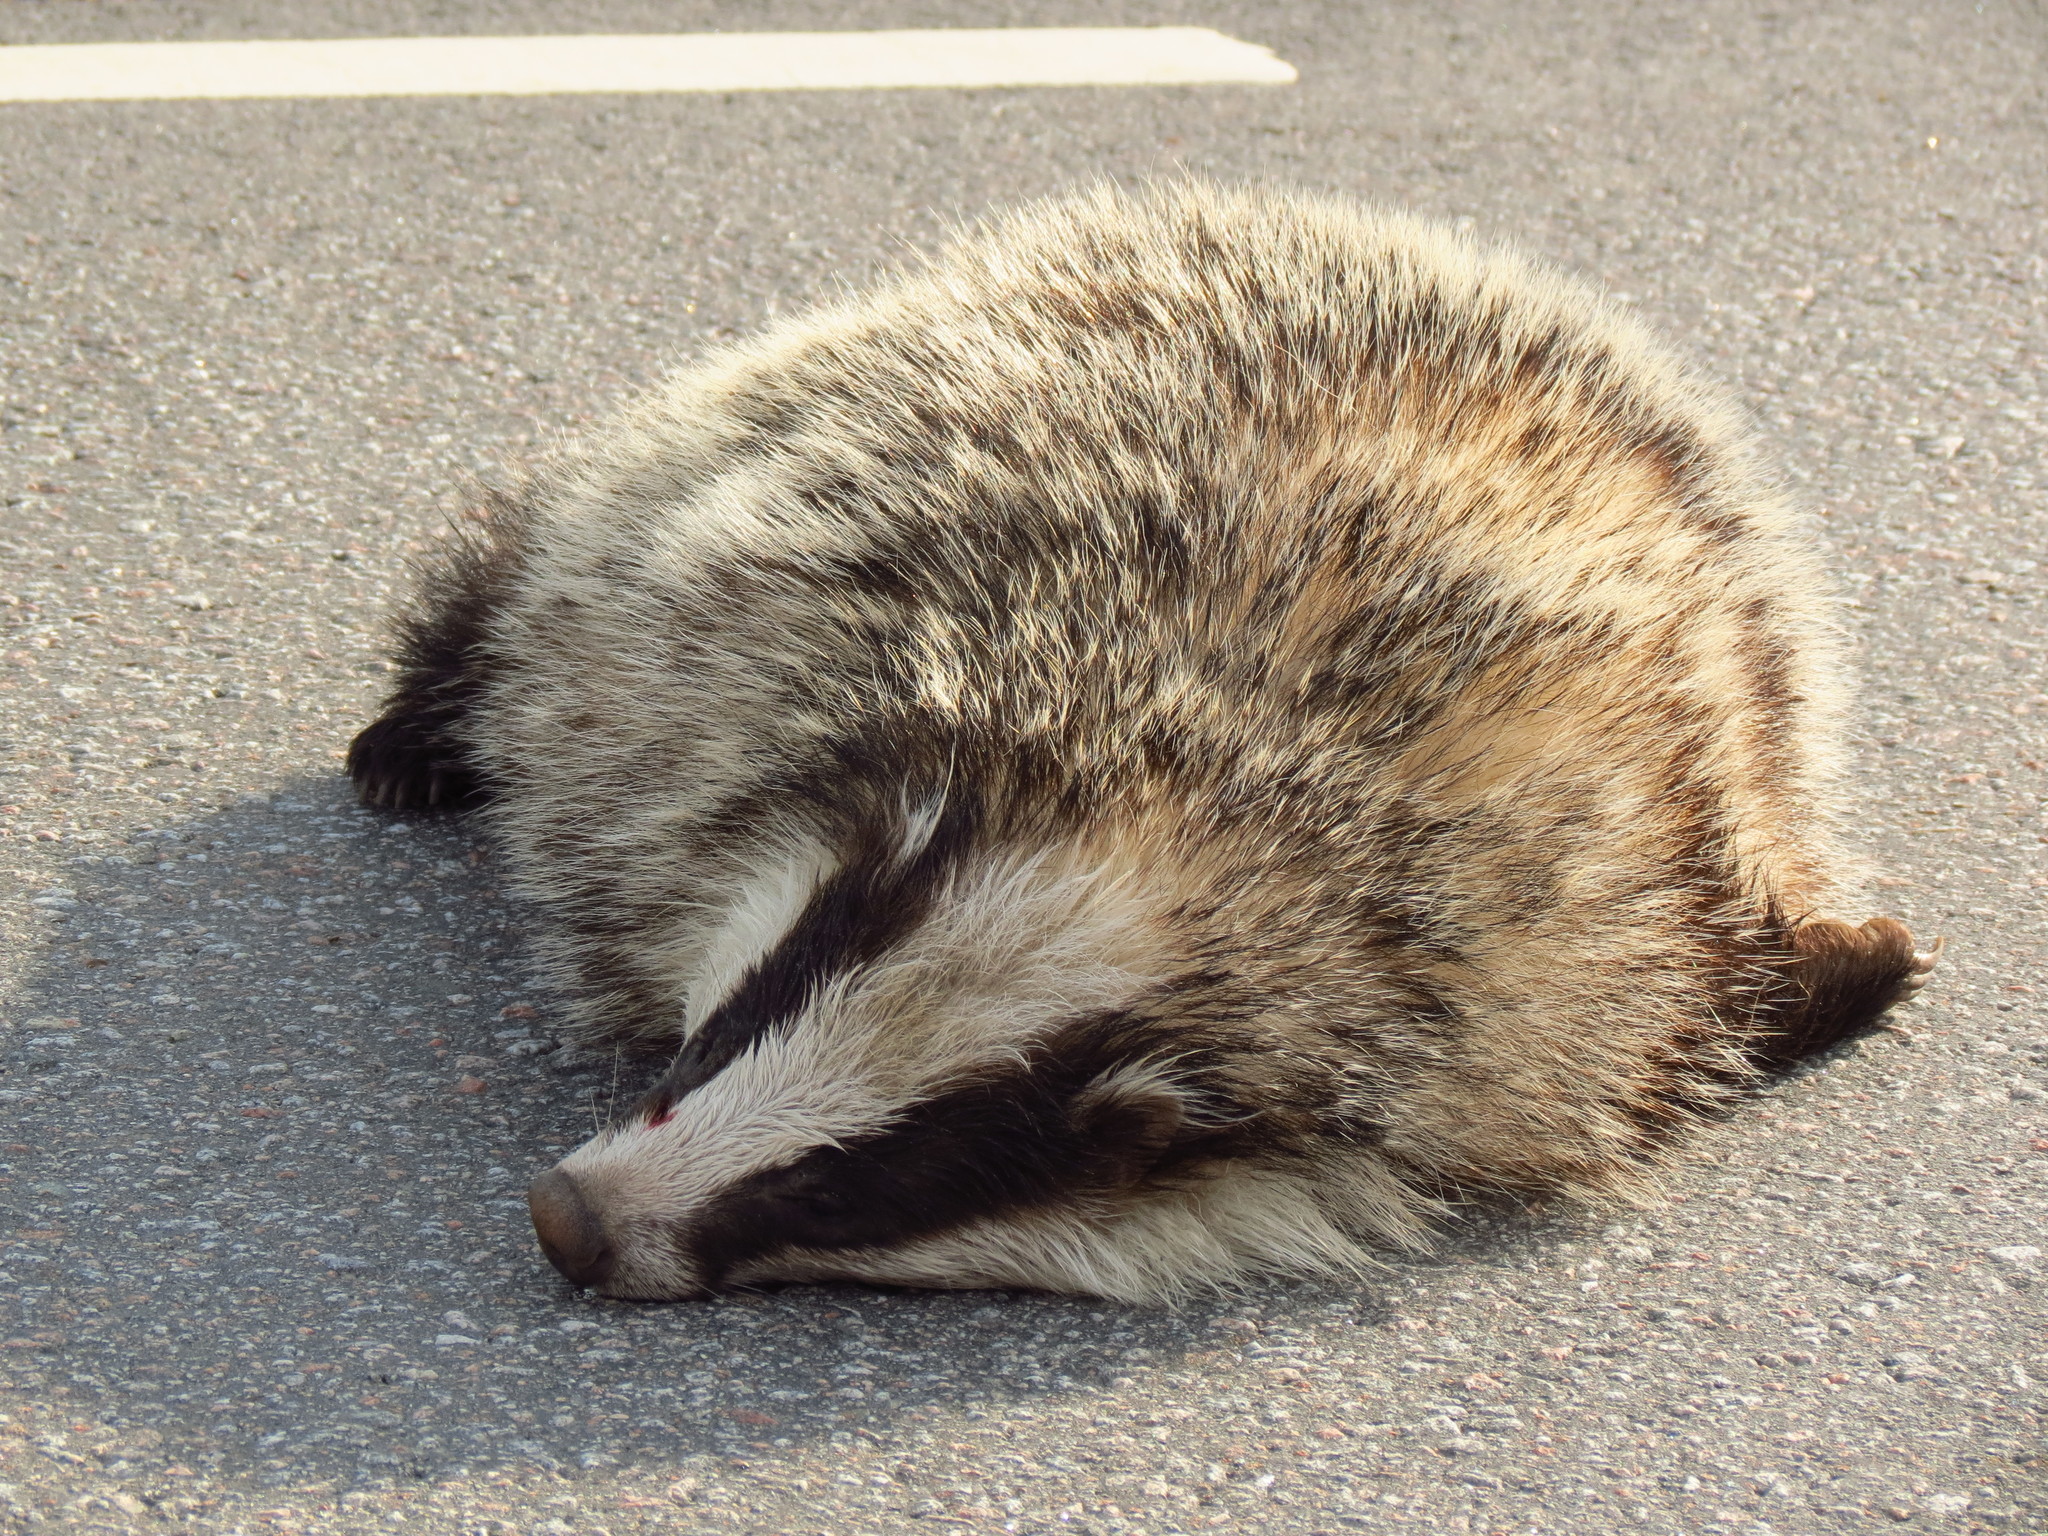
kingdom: Animalia
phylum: Chordata
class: Mammalia
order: Carnivora
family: Mustelidae
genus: Meles
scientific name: Meles meles
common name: Eurasian badger
